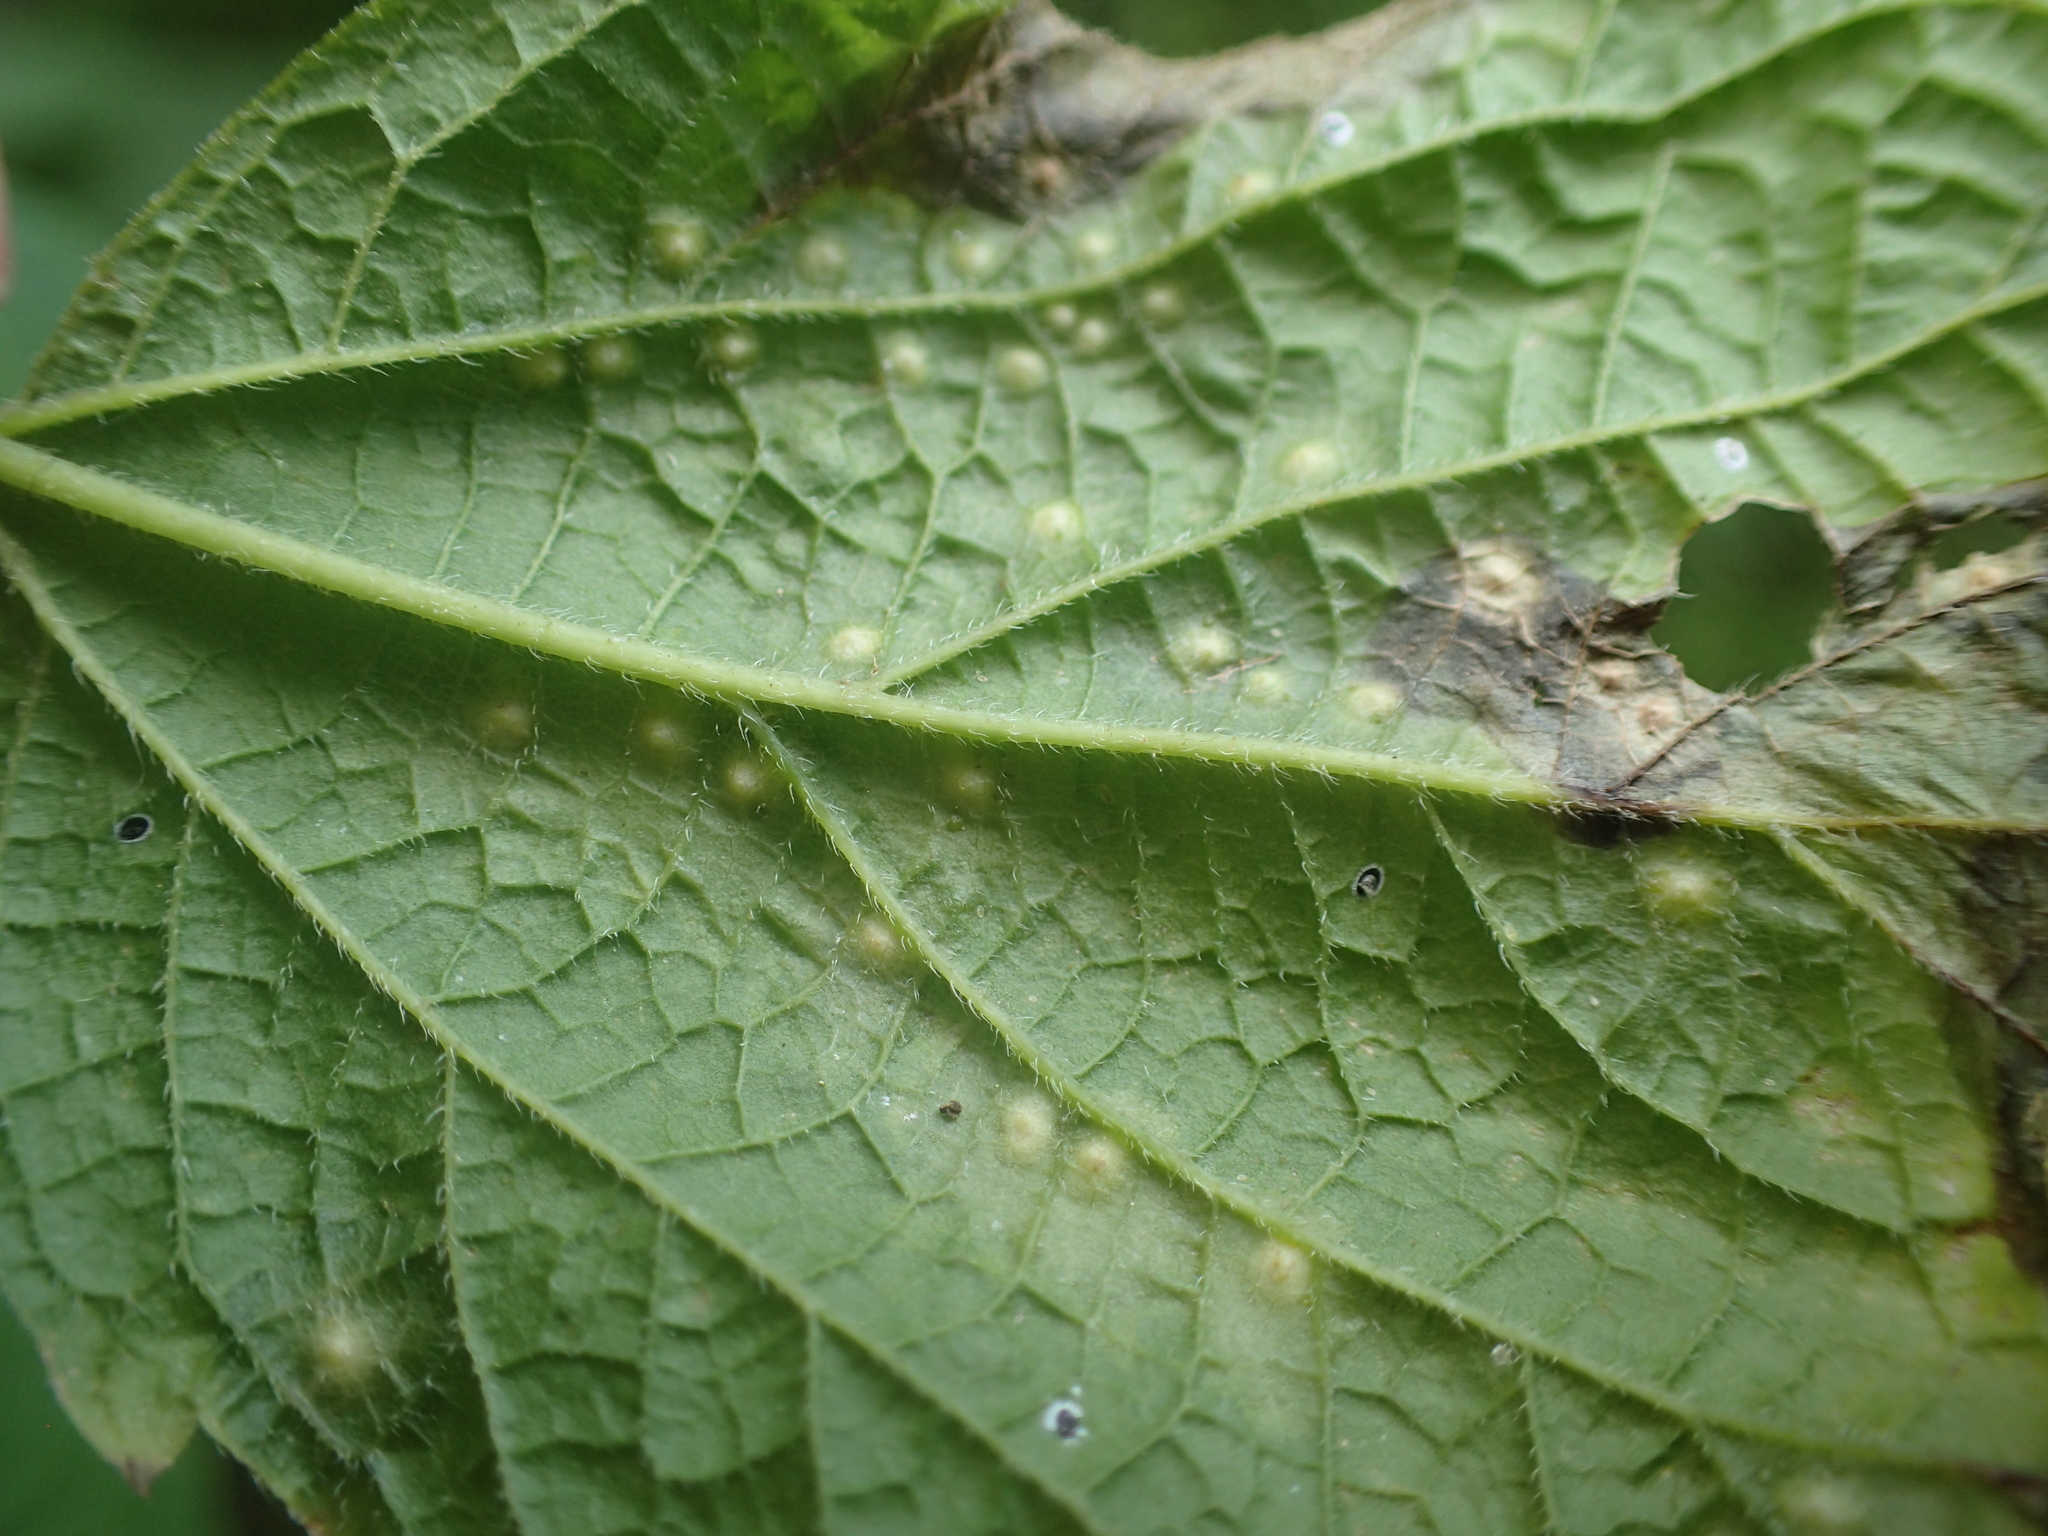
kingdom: Animalia
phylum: Arthropoda
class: Insecta
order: Hemiptera
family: Aphalaridae
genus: Pachypsylla
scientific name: Pachypsylla celtidisvesicula
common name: Hackberry blister gall psyllid
